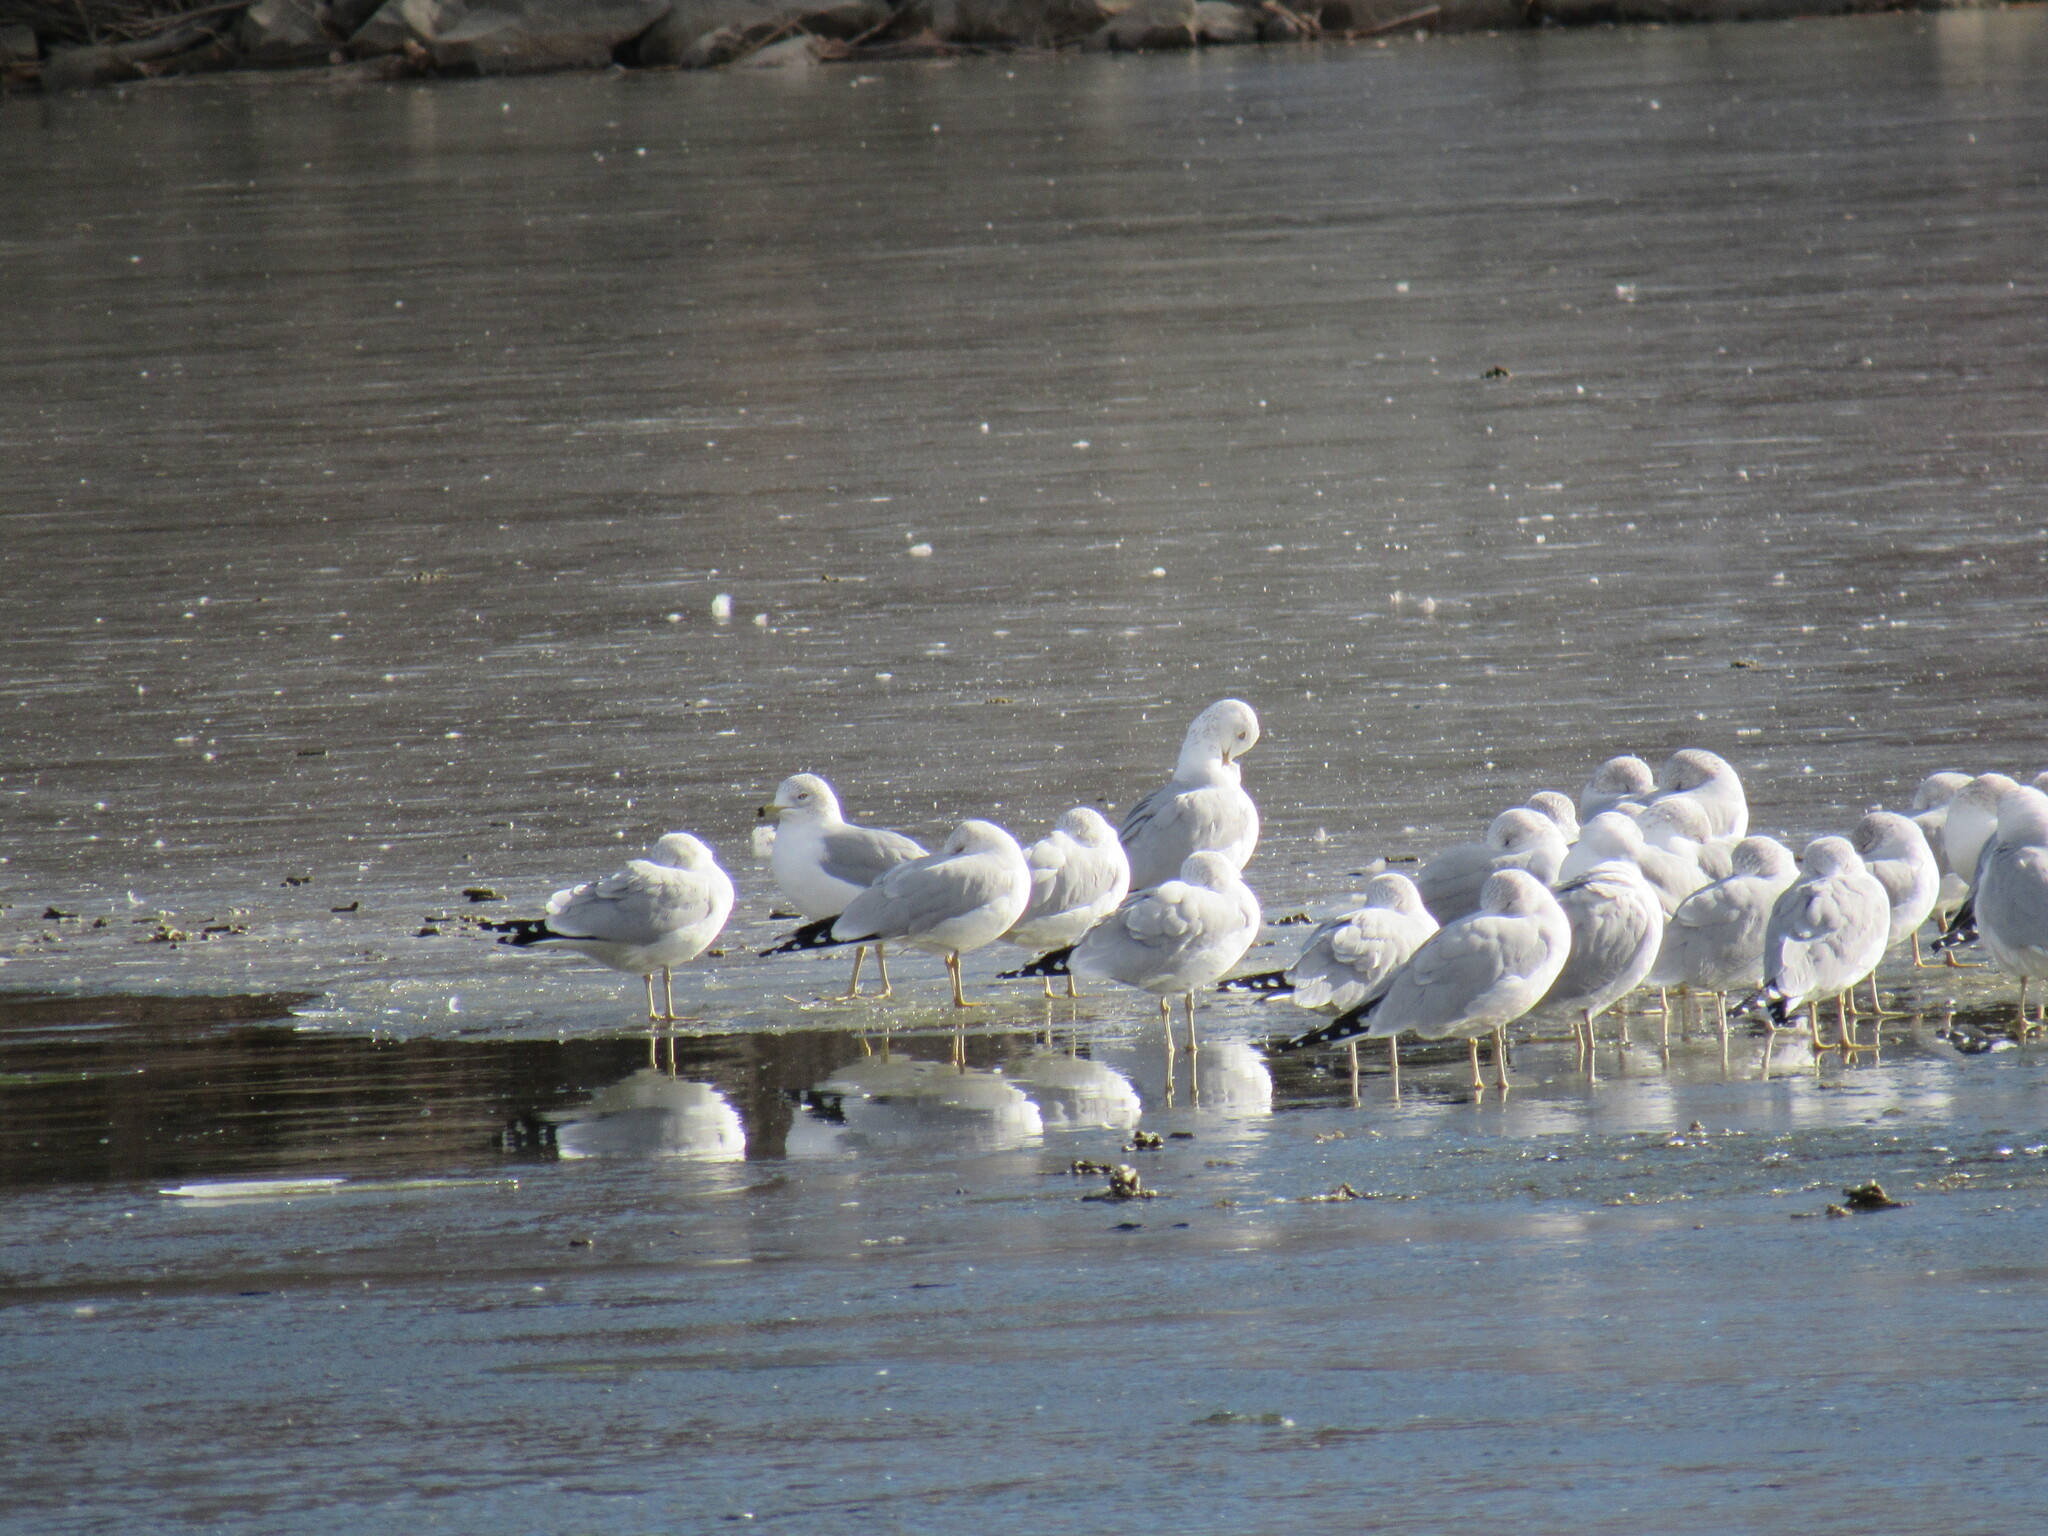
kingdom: Animalia
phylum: Chordata
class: Aves
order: Charadriiformes
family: Laridae
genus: Larus
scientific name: Larus delawarensis
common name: Ring-billed gull
